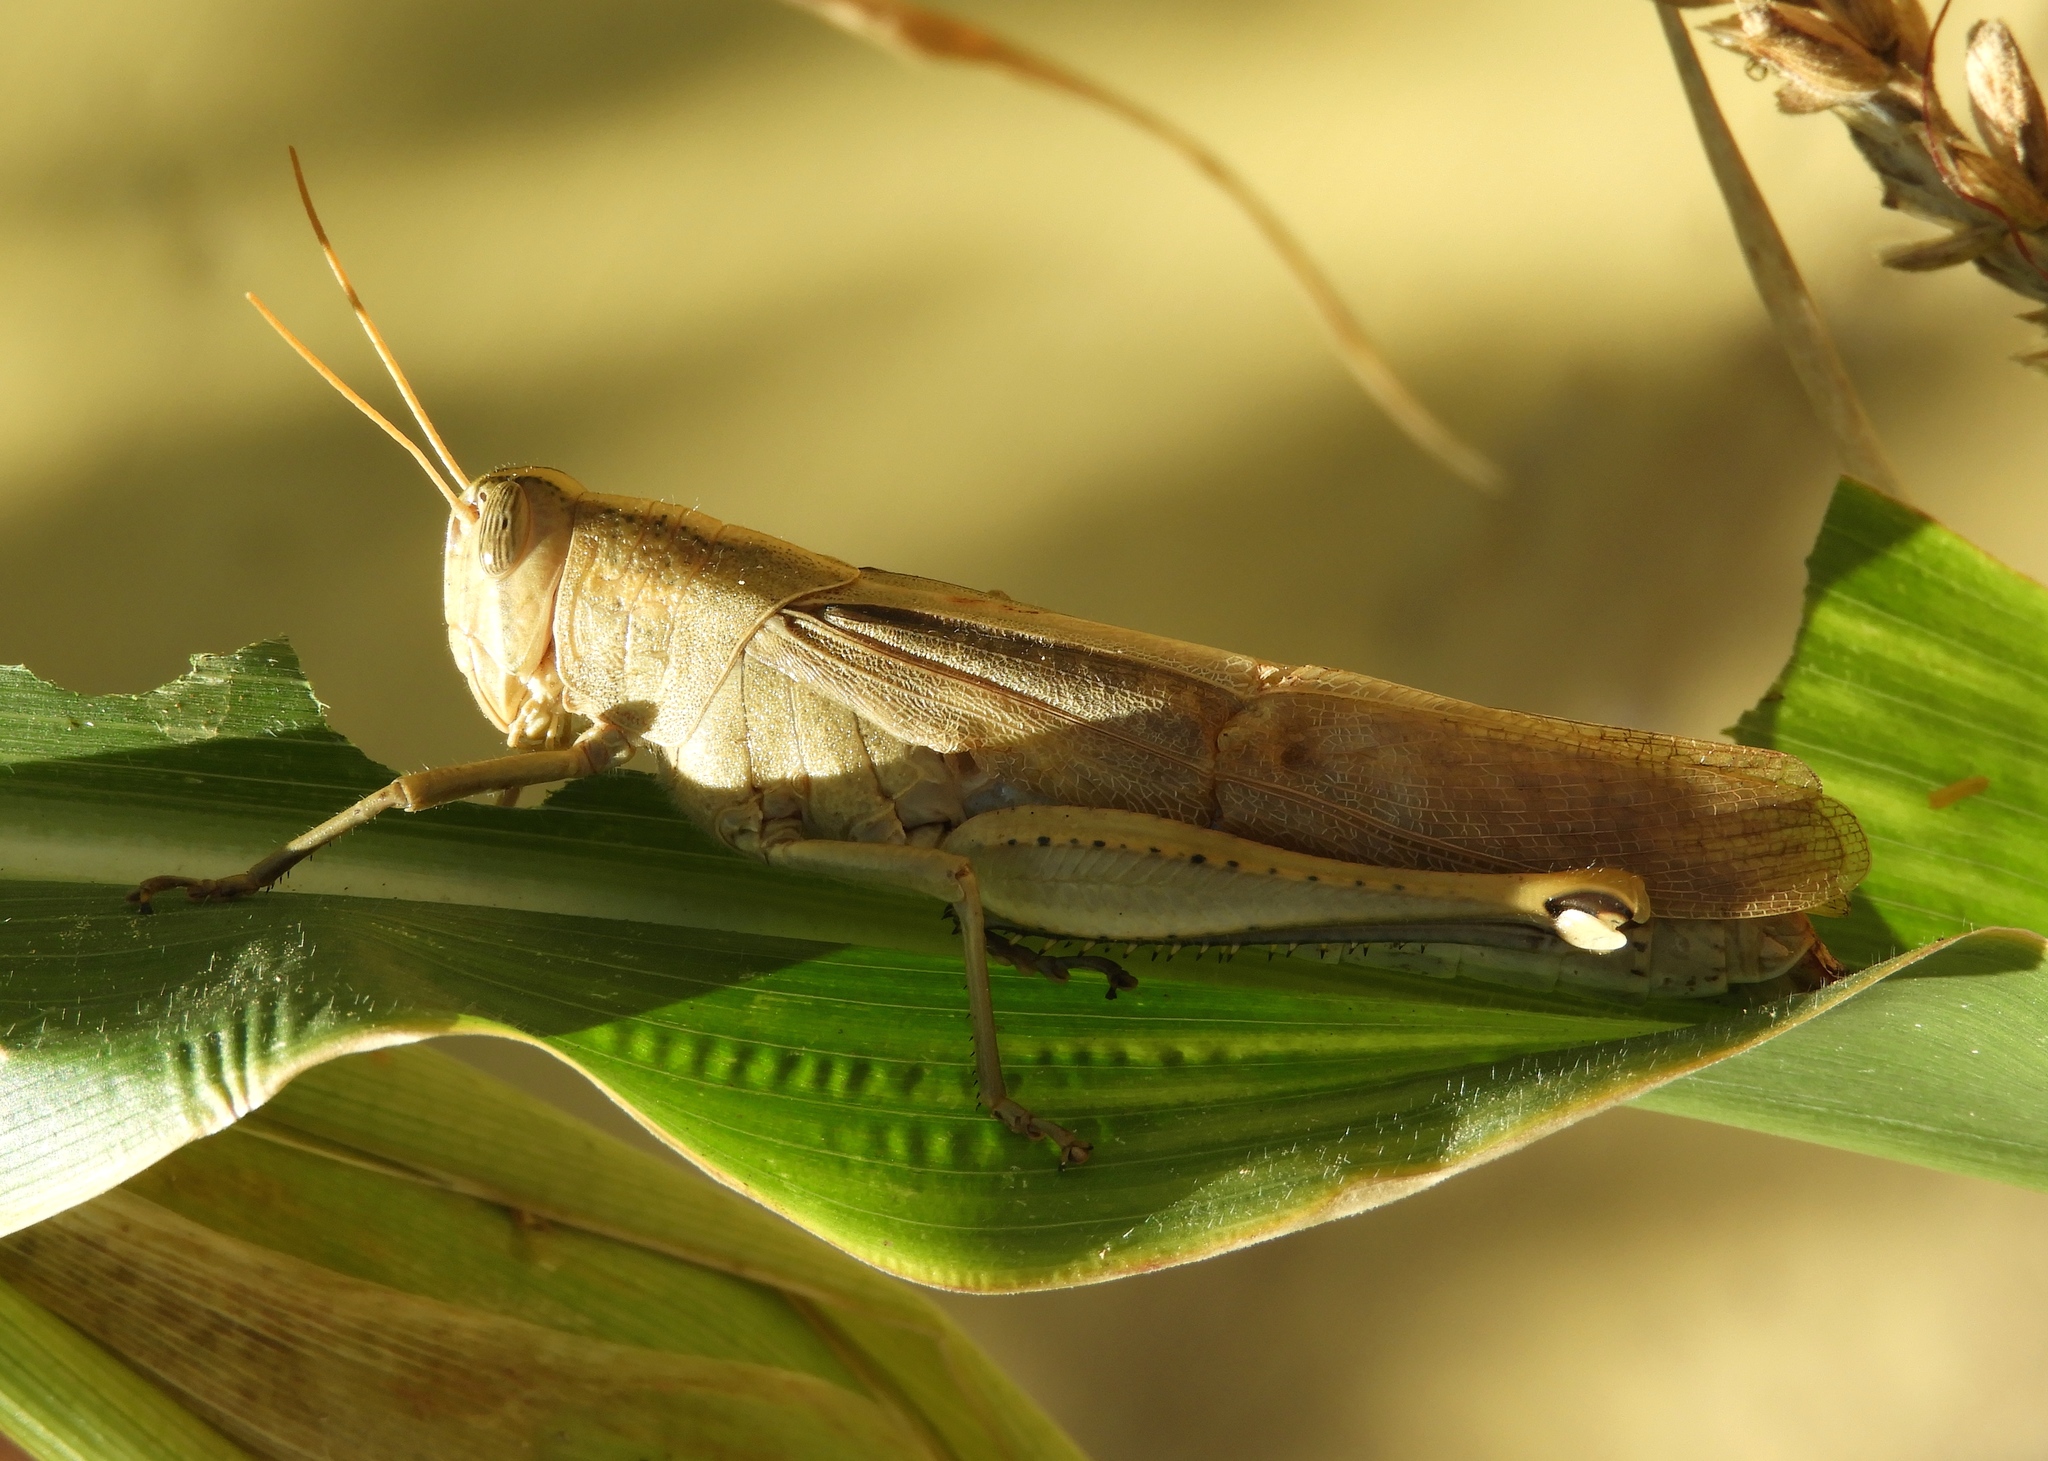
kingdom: Animalia
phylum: Arthropoda
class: Insecta
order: Orthoptera
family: Acrididae
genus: Schistocerca
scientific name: Schistocerca camerata
